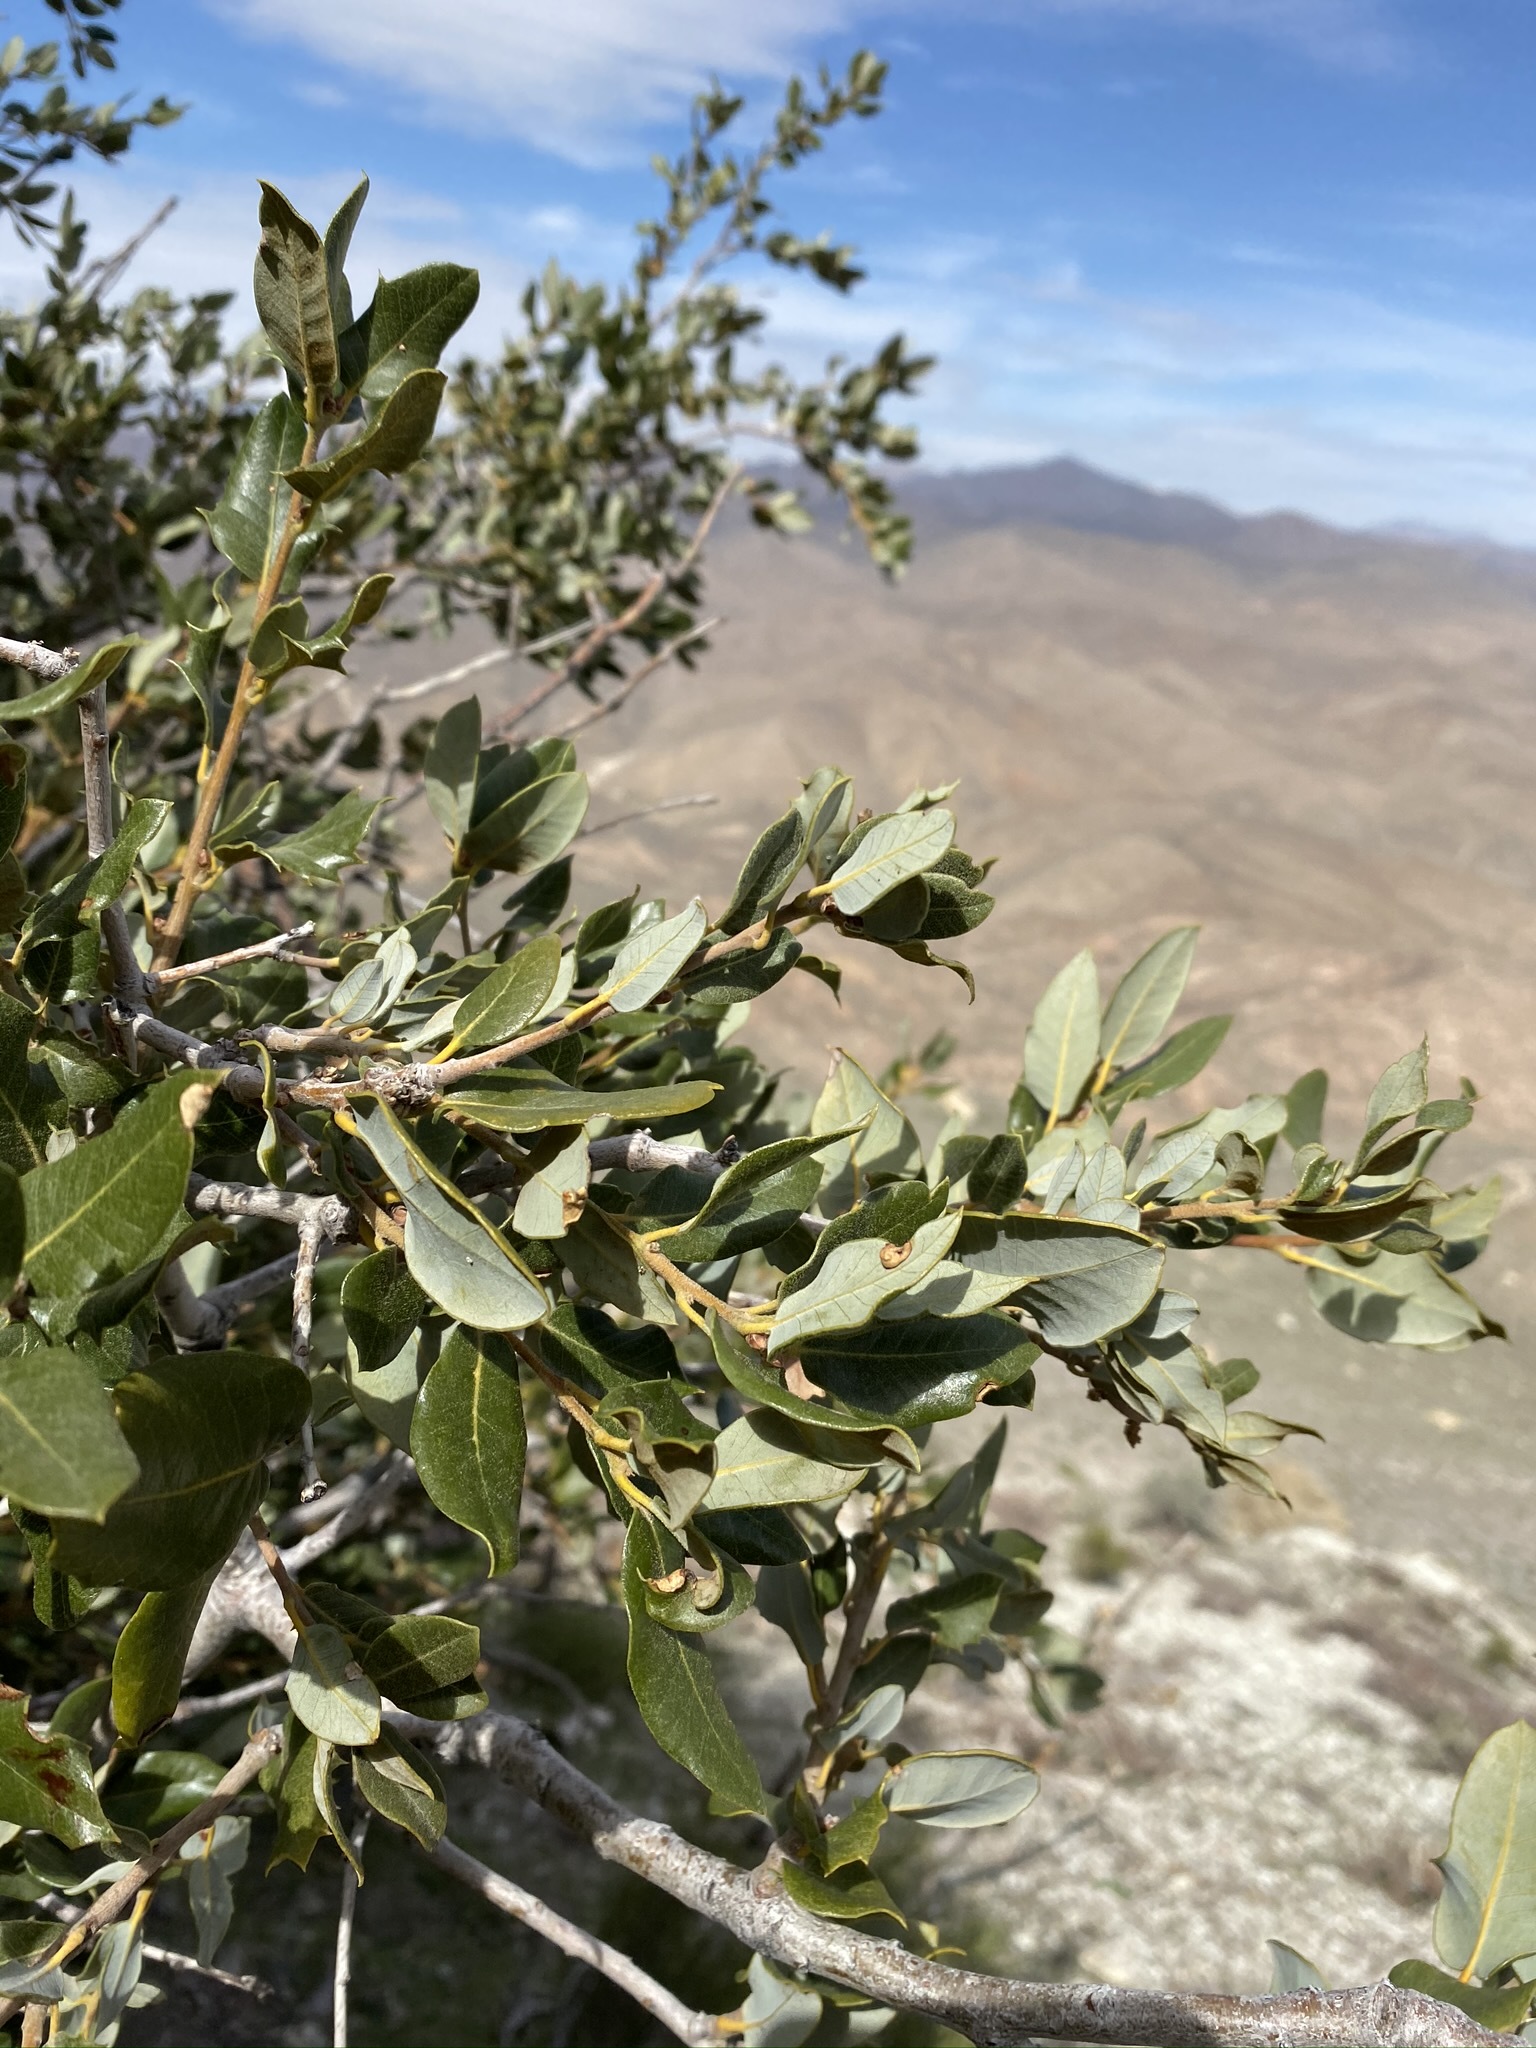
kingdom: Plantae
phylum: Tracheophyta
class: Magnoliopsida
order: Fagales
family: Fagaceae
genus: Quercus
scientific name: Quercus chrysolepis
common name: Canyon live oak
